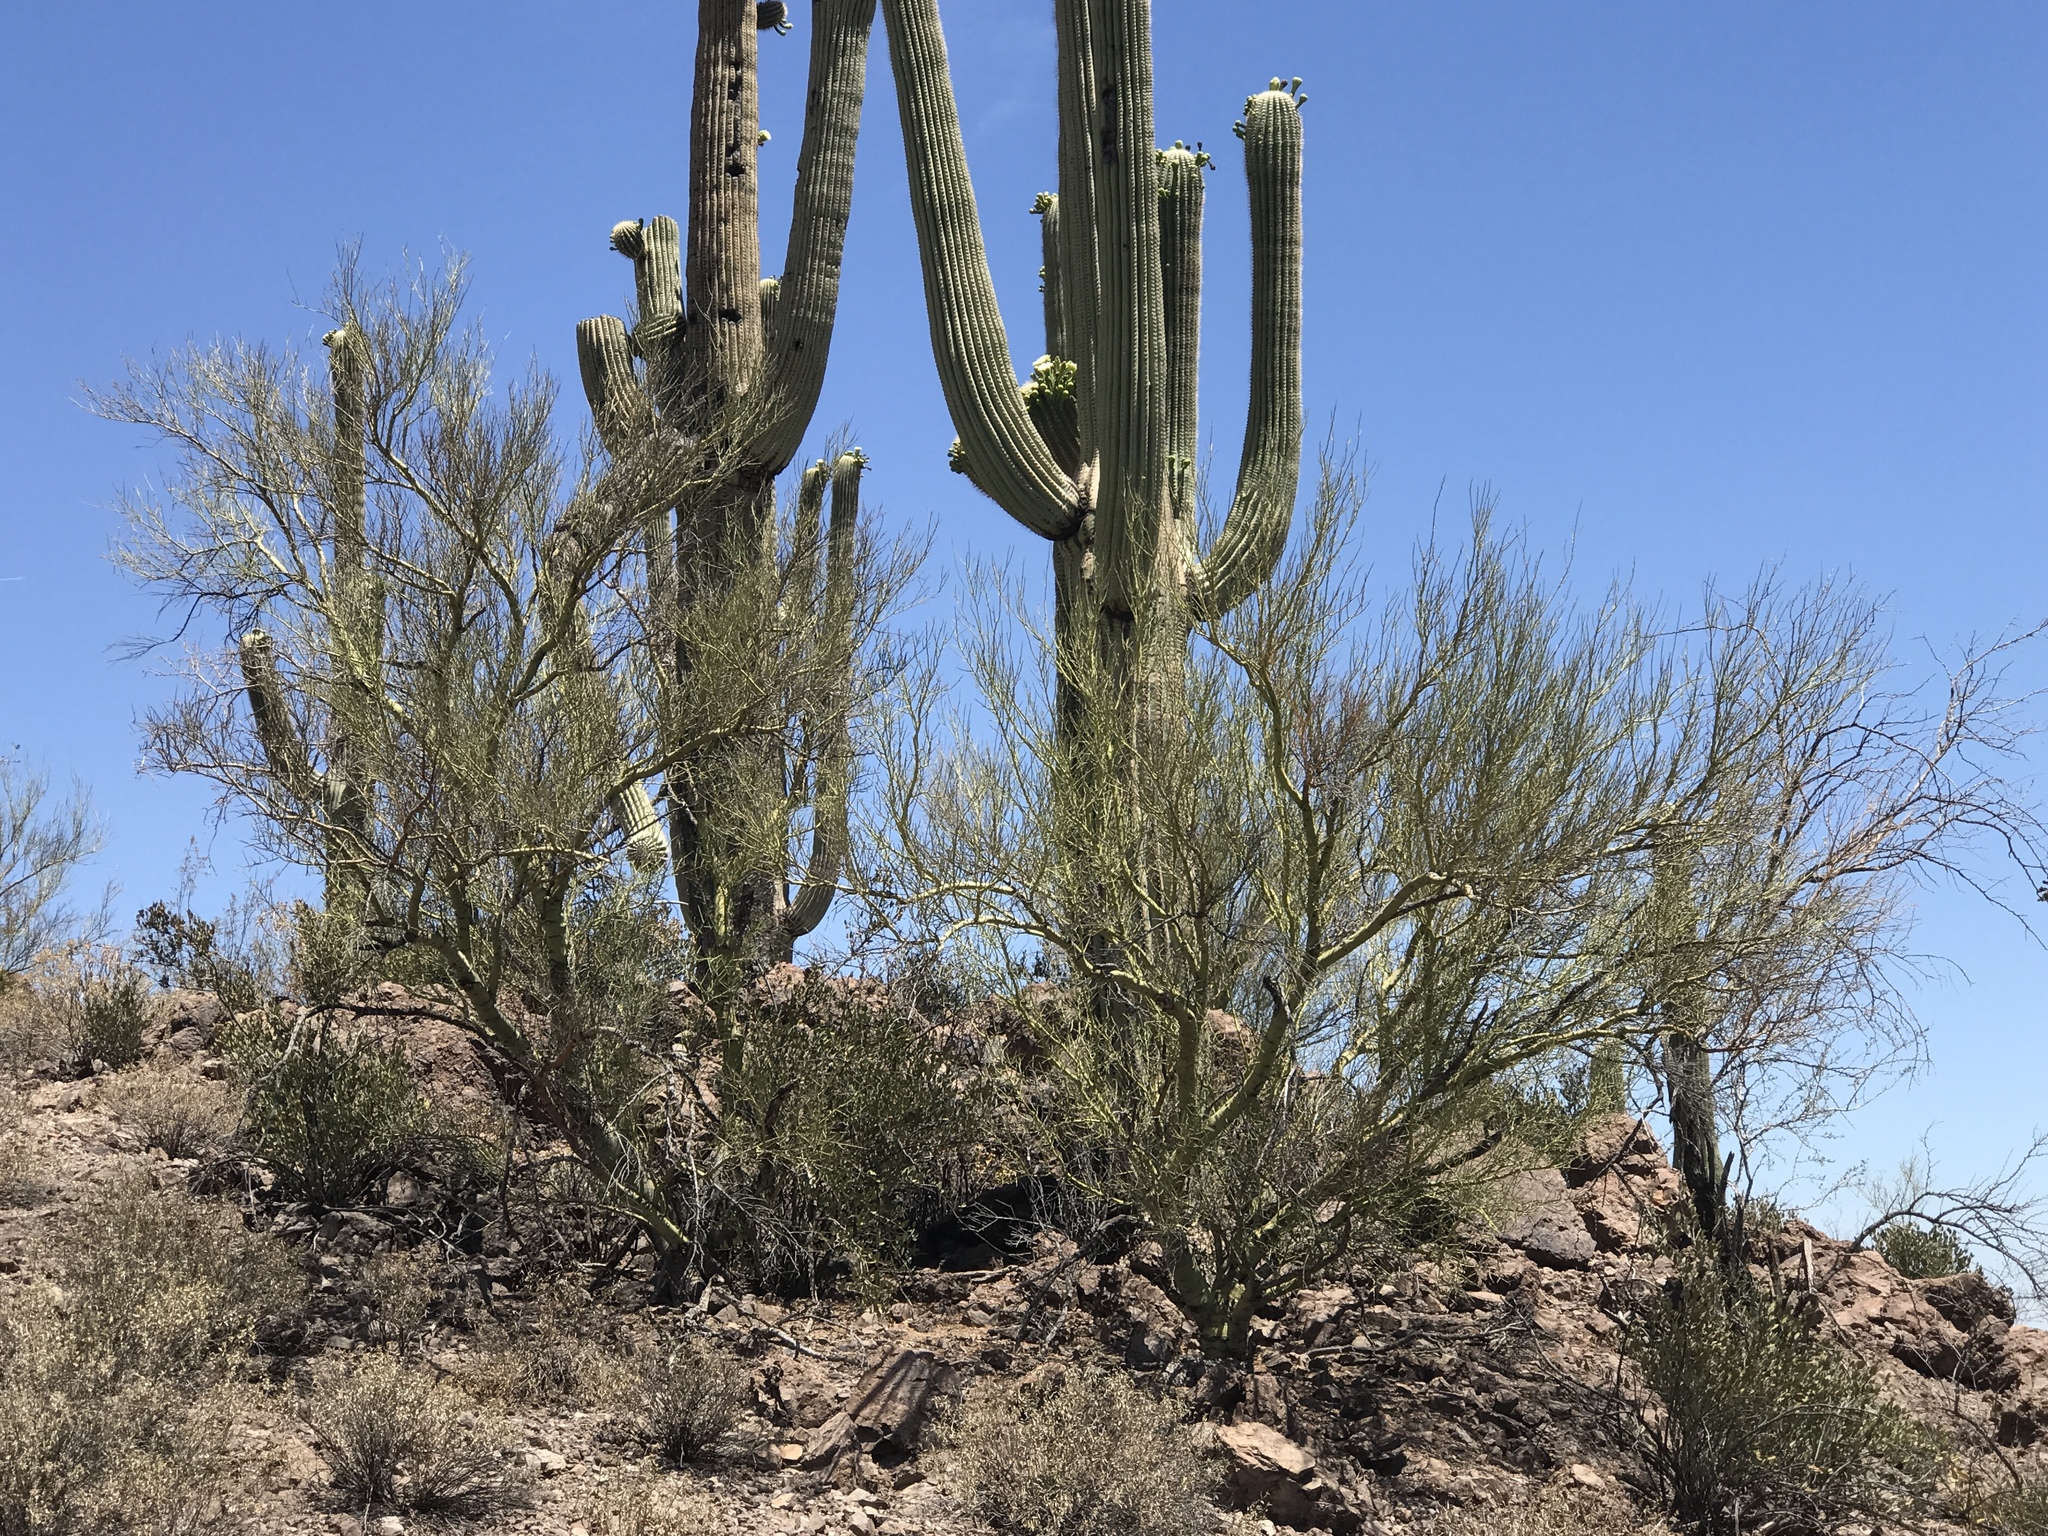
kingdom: Plantae
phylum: Tracheophyta
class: Magnoliopsida
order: Fabales
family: Fabaceae
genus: Parkinsonia
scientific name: Parkinsonia microphylla
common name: Yellow paloverde
